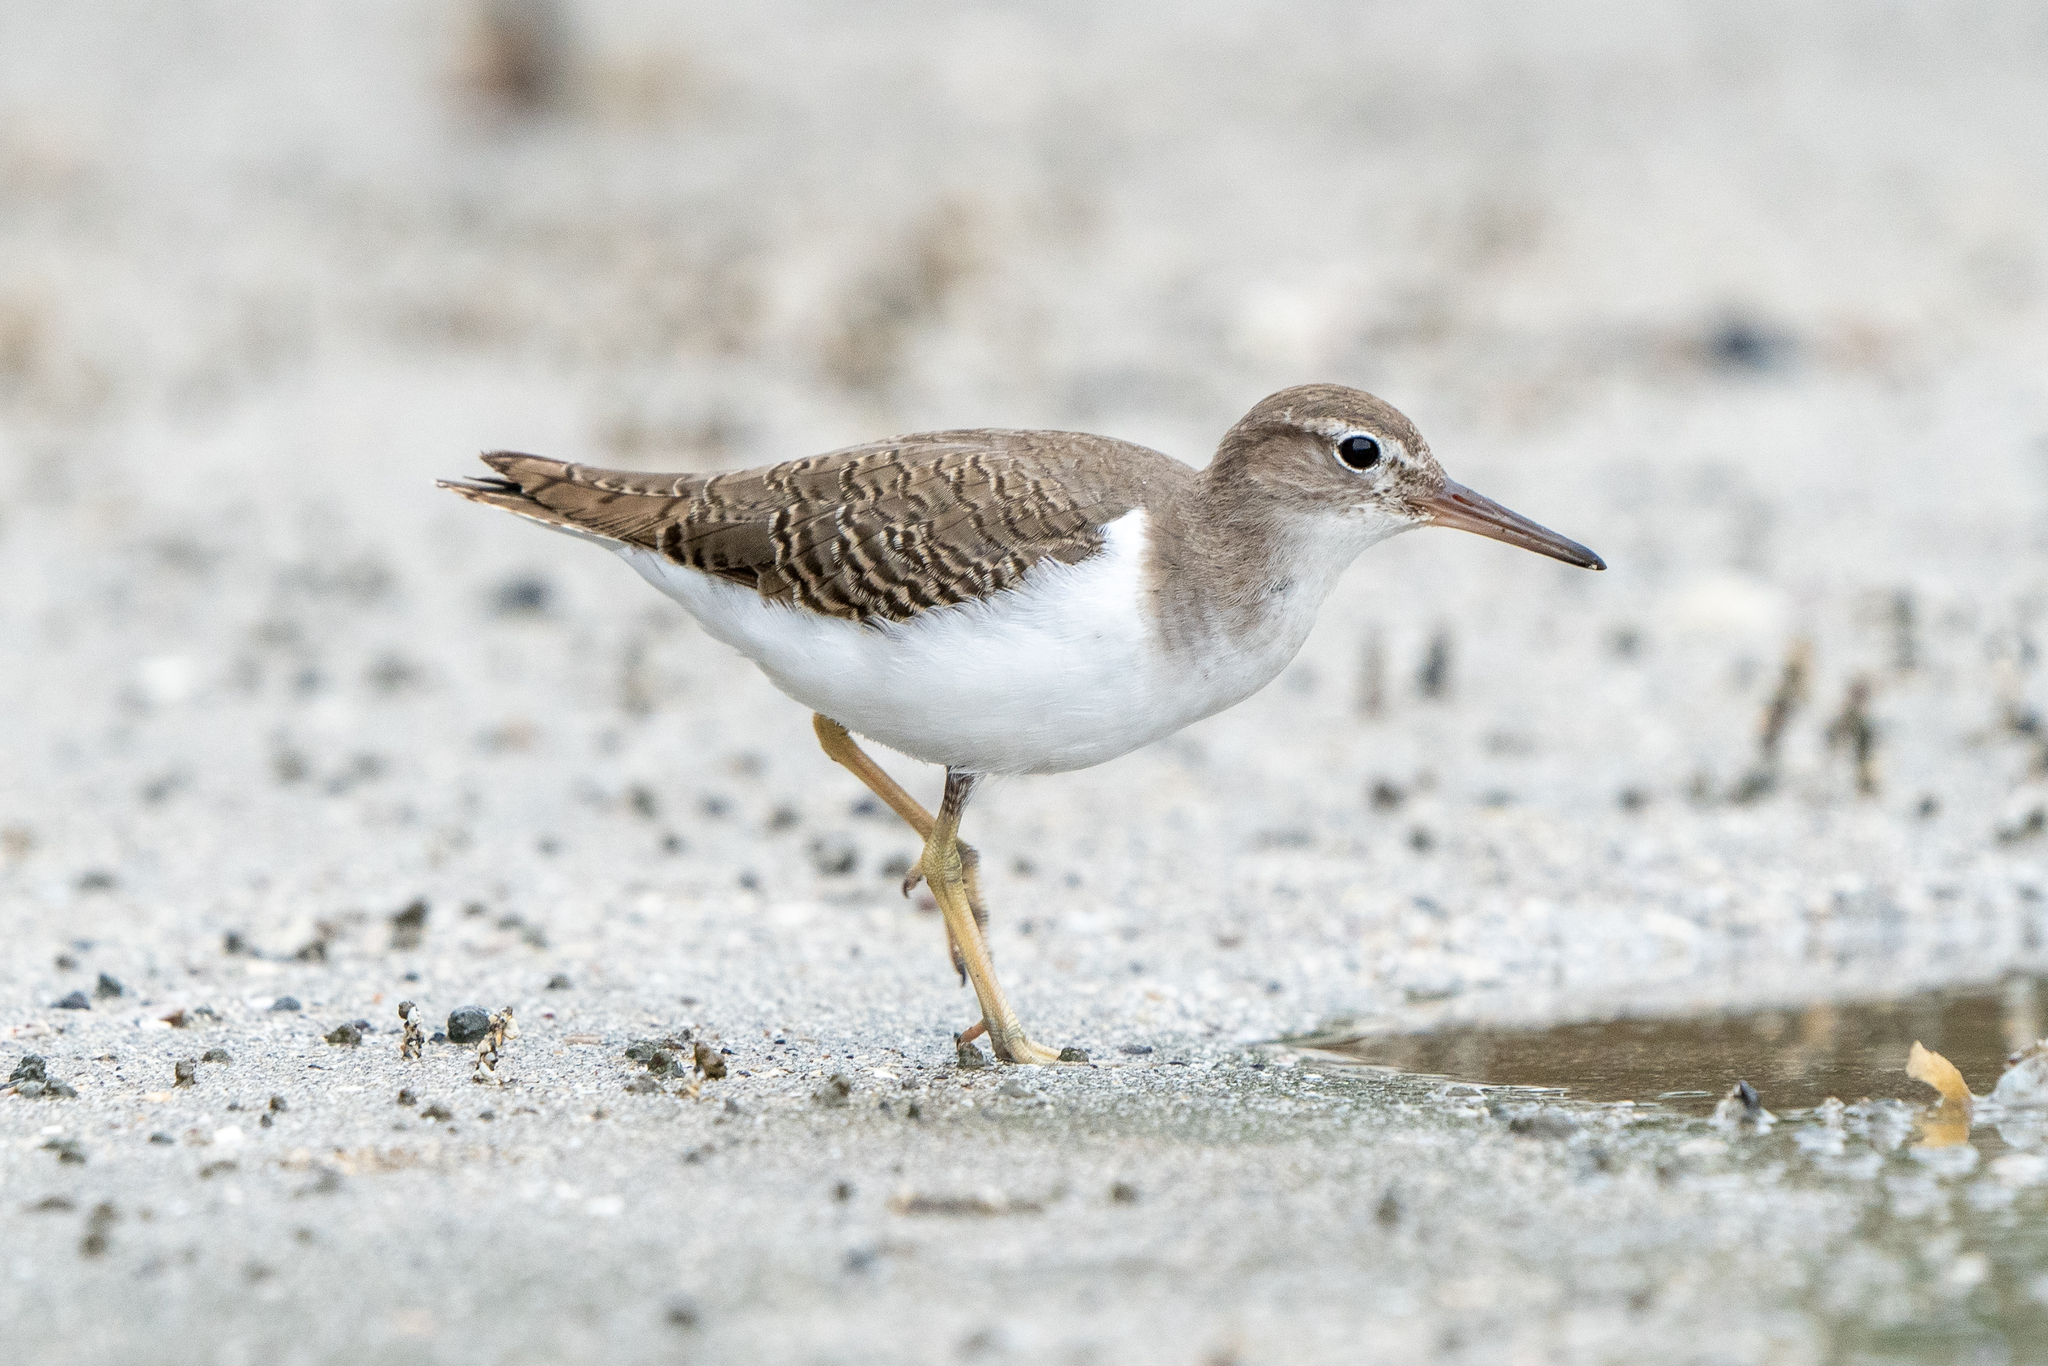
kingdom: Animalia
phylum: Chordata
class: Aves
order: Charadriiformes
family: Scolopacidae
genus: Actitis
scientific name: Actitis macularius
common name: Spotted sandpiper
